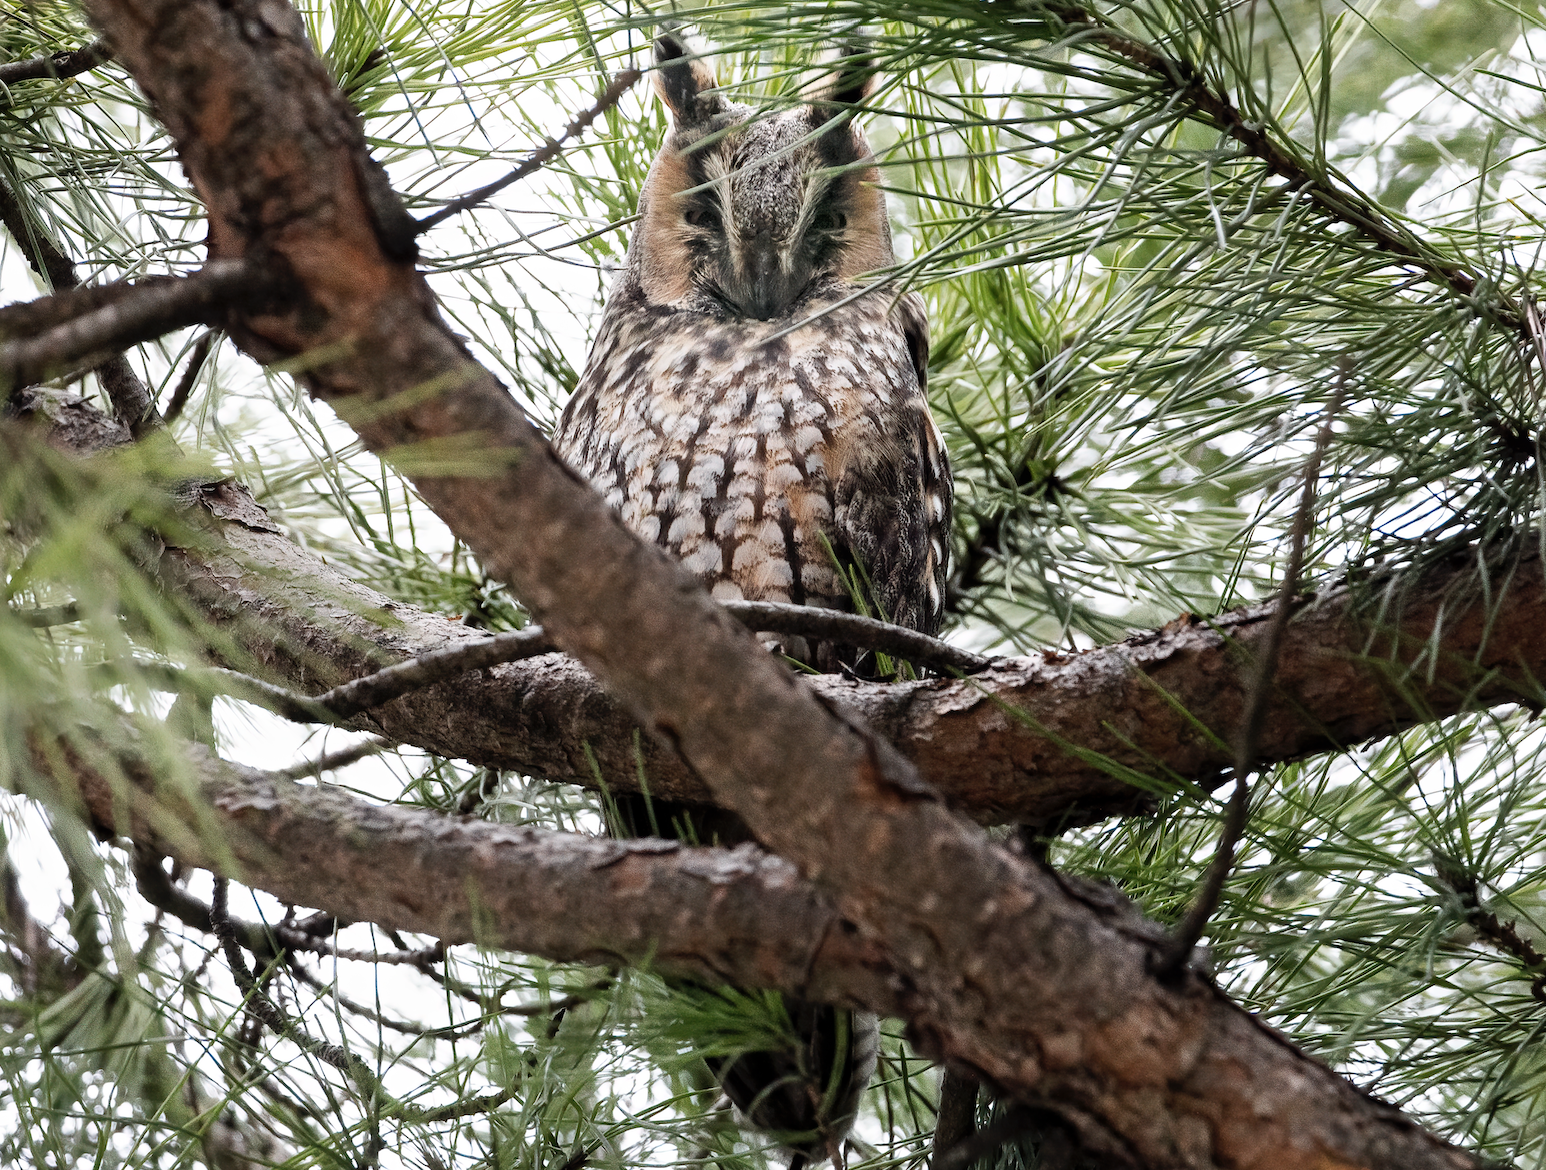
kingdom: Animalia
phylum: Chordata
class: Aves
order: Strigiformes
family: Strigidae
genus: Asio
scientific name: Asio otus
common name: Long-eared owl
